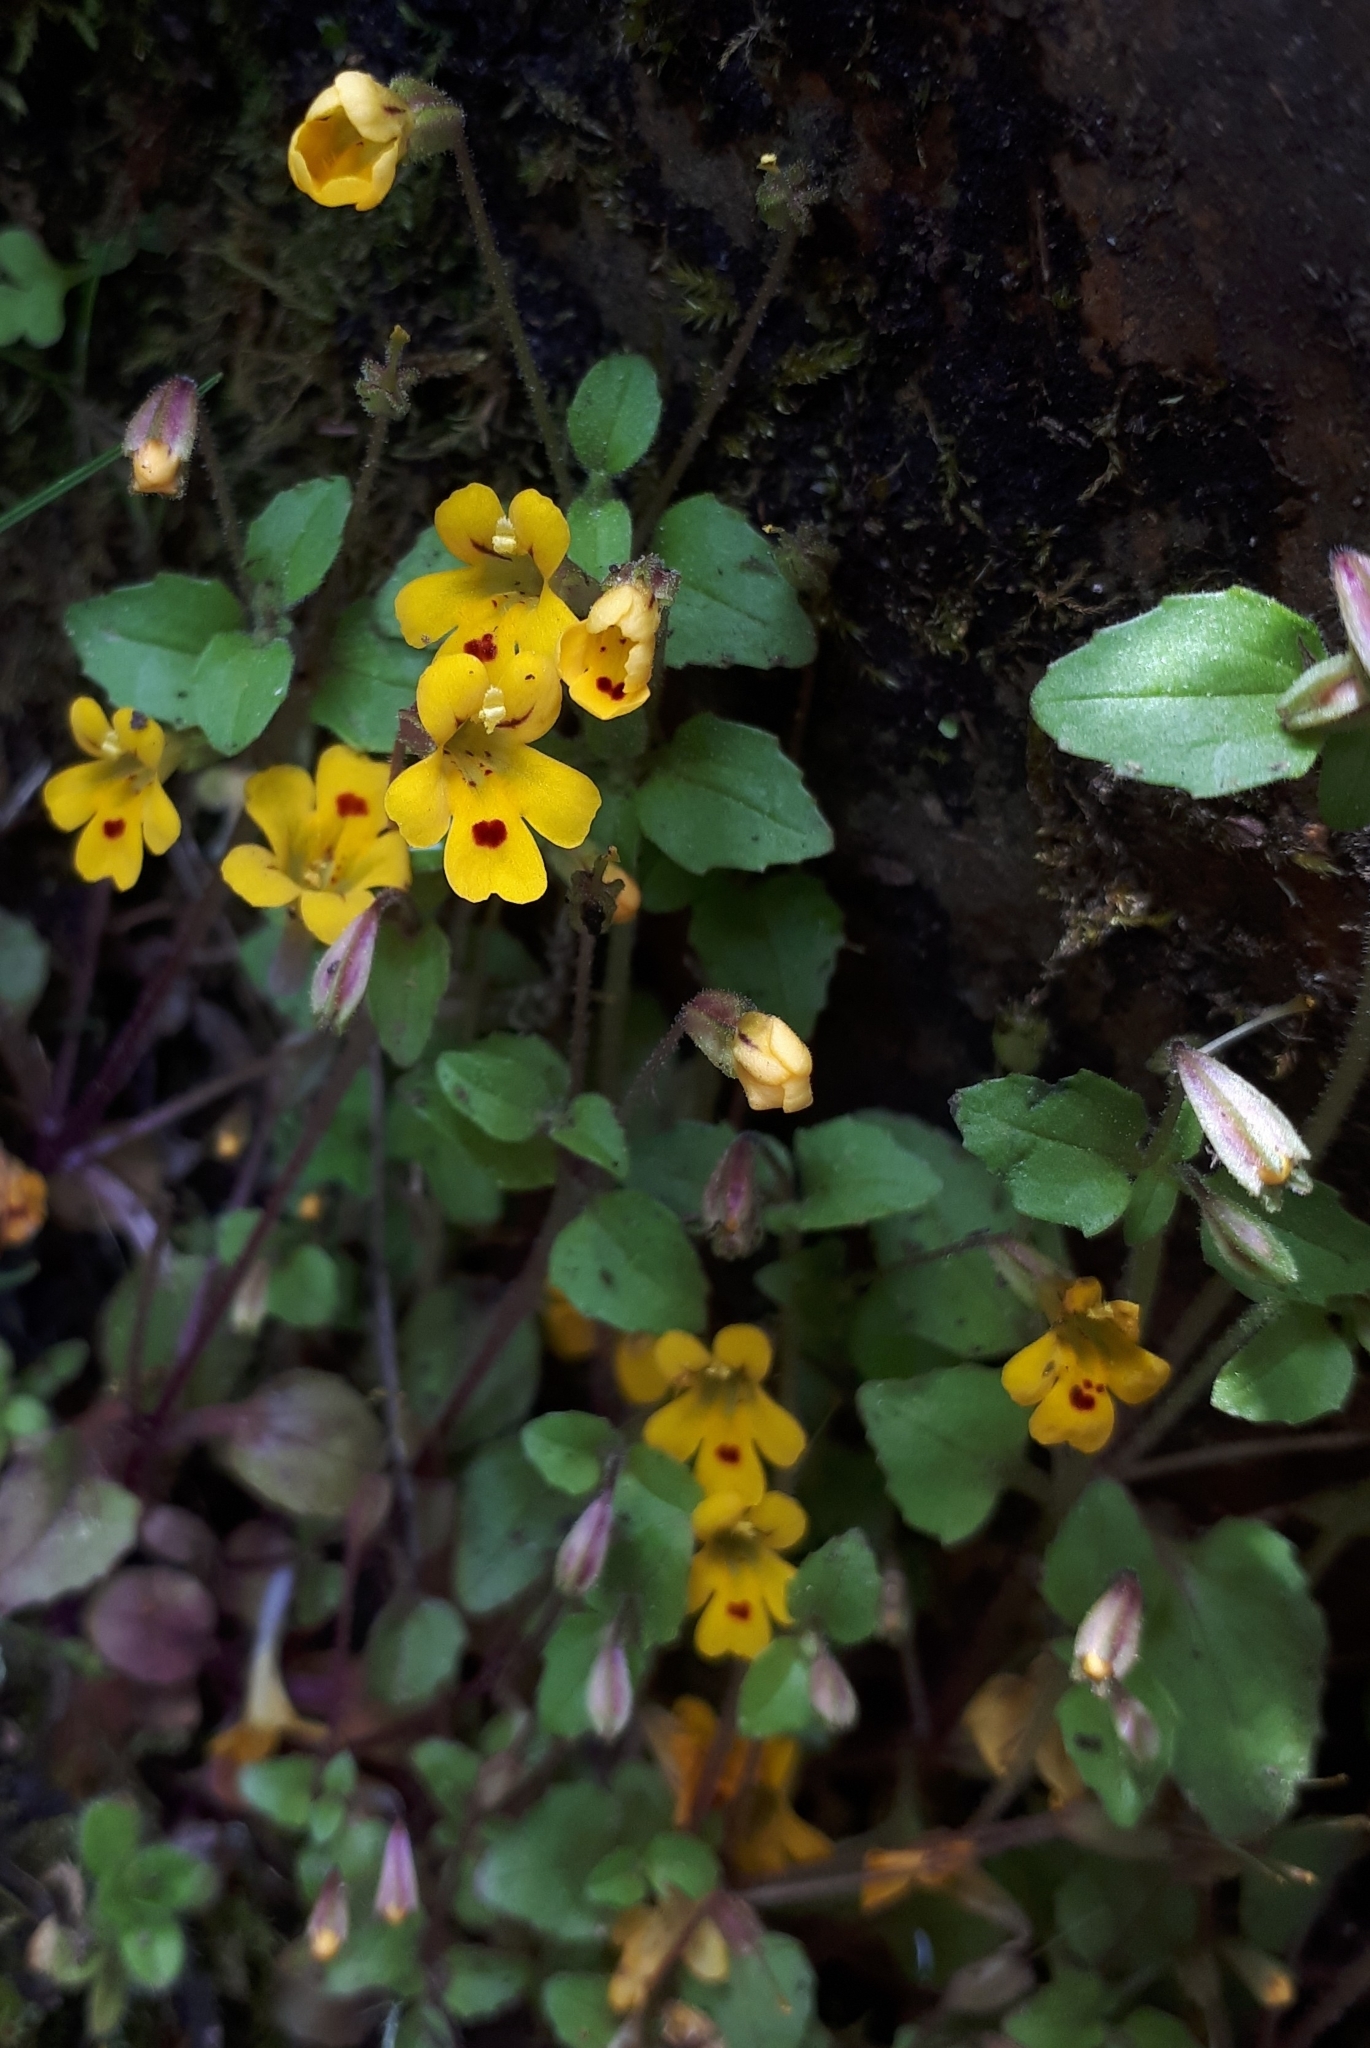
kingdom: Plantae
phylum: Tracheophyta
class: Magnoliopsida
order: Lamiales
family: Phrymaceae
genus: Erythranthe
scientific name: Erythranthe alsinoides
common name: Chickweed monkeyflower
